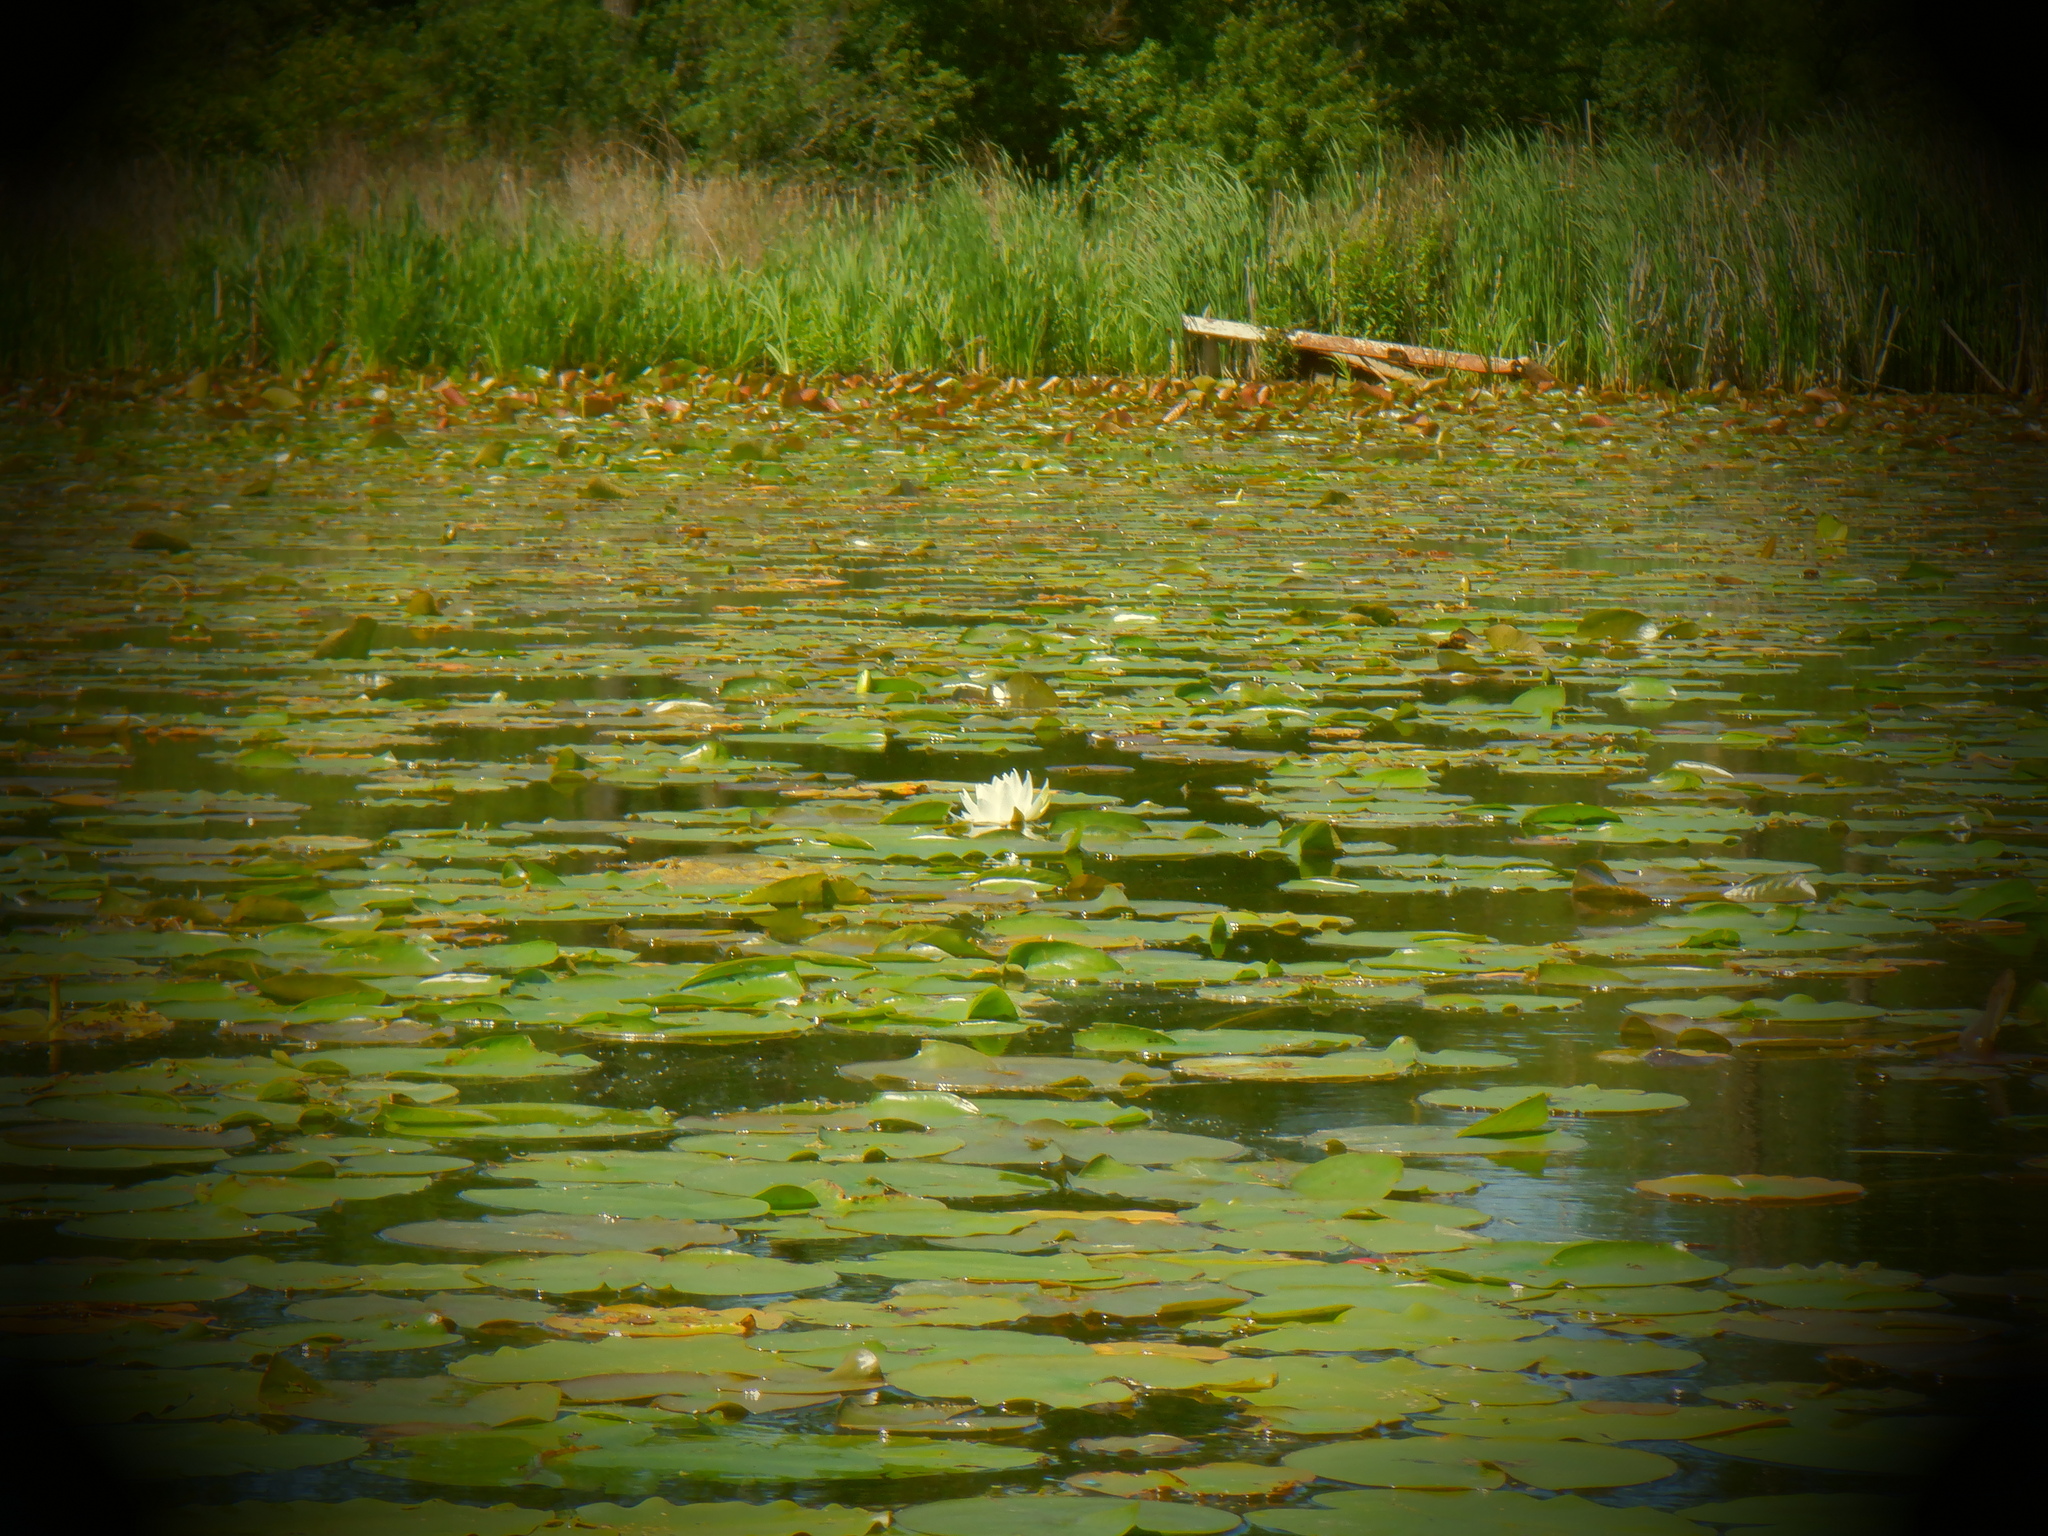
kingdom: Plantae
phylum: Tracheophyta
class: Magnoliopsida
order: Nymphaeales
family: Nymphaeaceae
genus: Nymphaea
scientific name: Nymphaea odorata
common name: Fragrant water-lily
